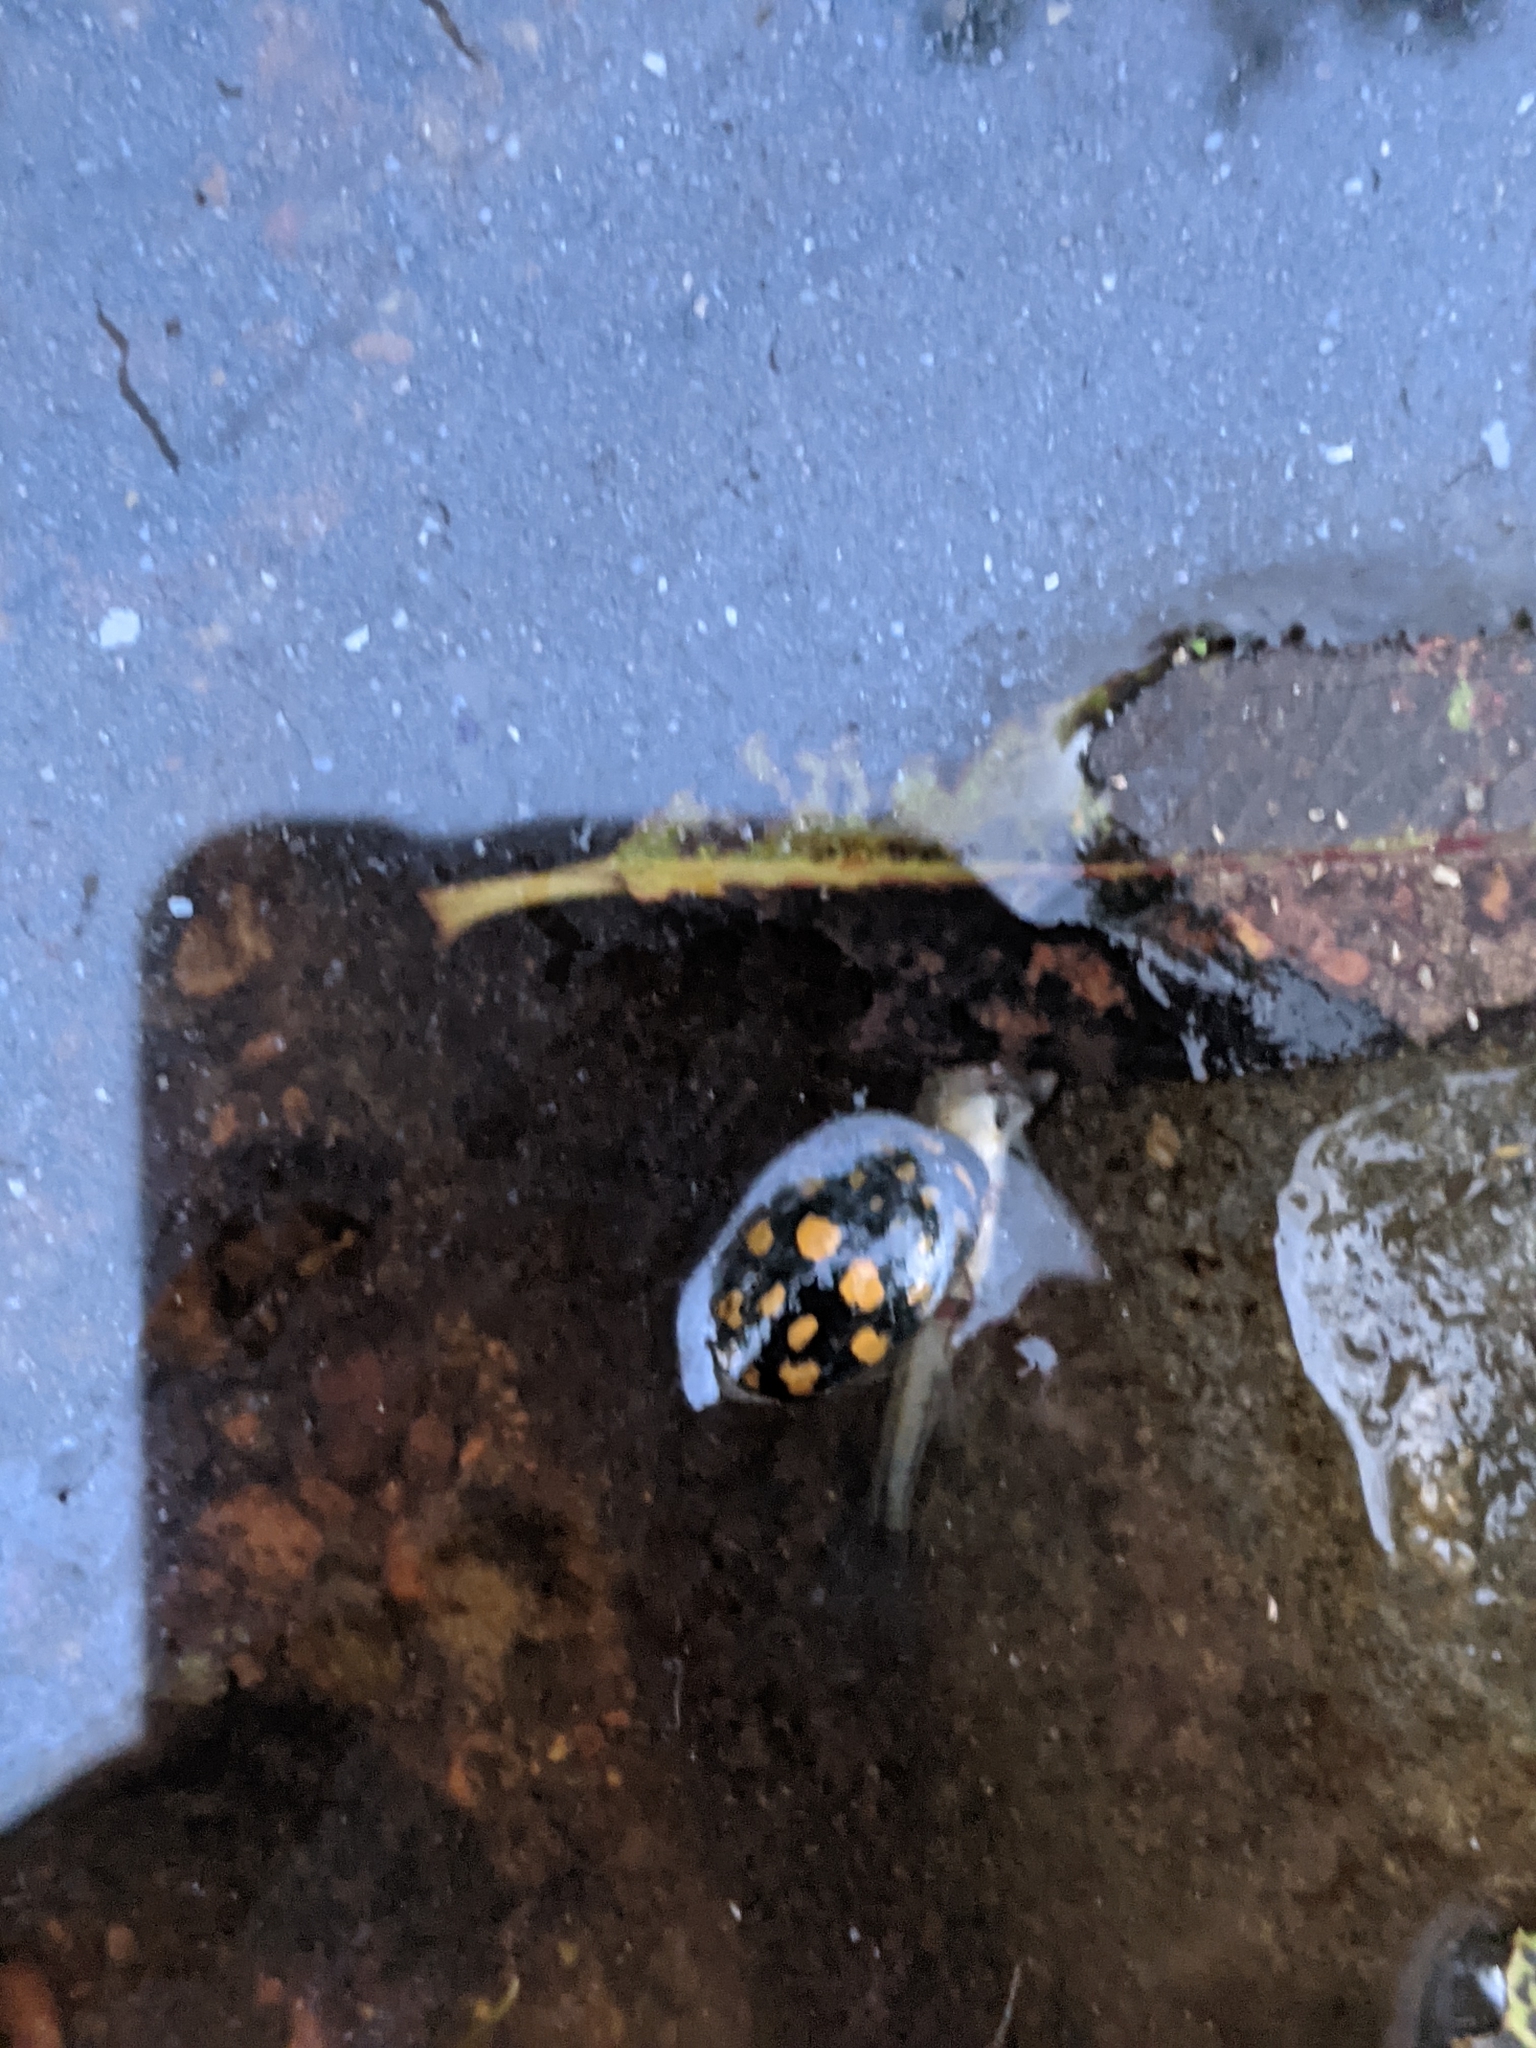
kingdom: Animalia
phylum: Arthropoda
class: Insecta
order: Coleoptera
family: Dytiscidae
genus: Thermonectus
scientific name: Thermonectus marmoratus
